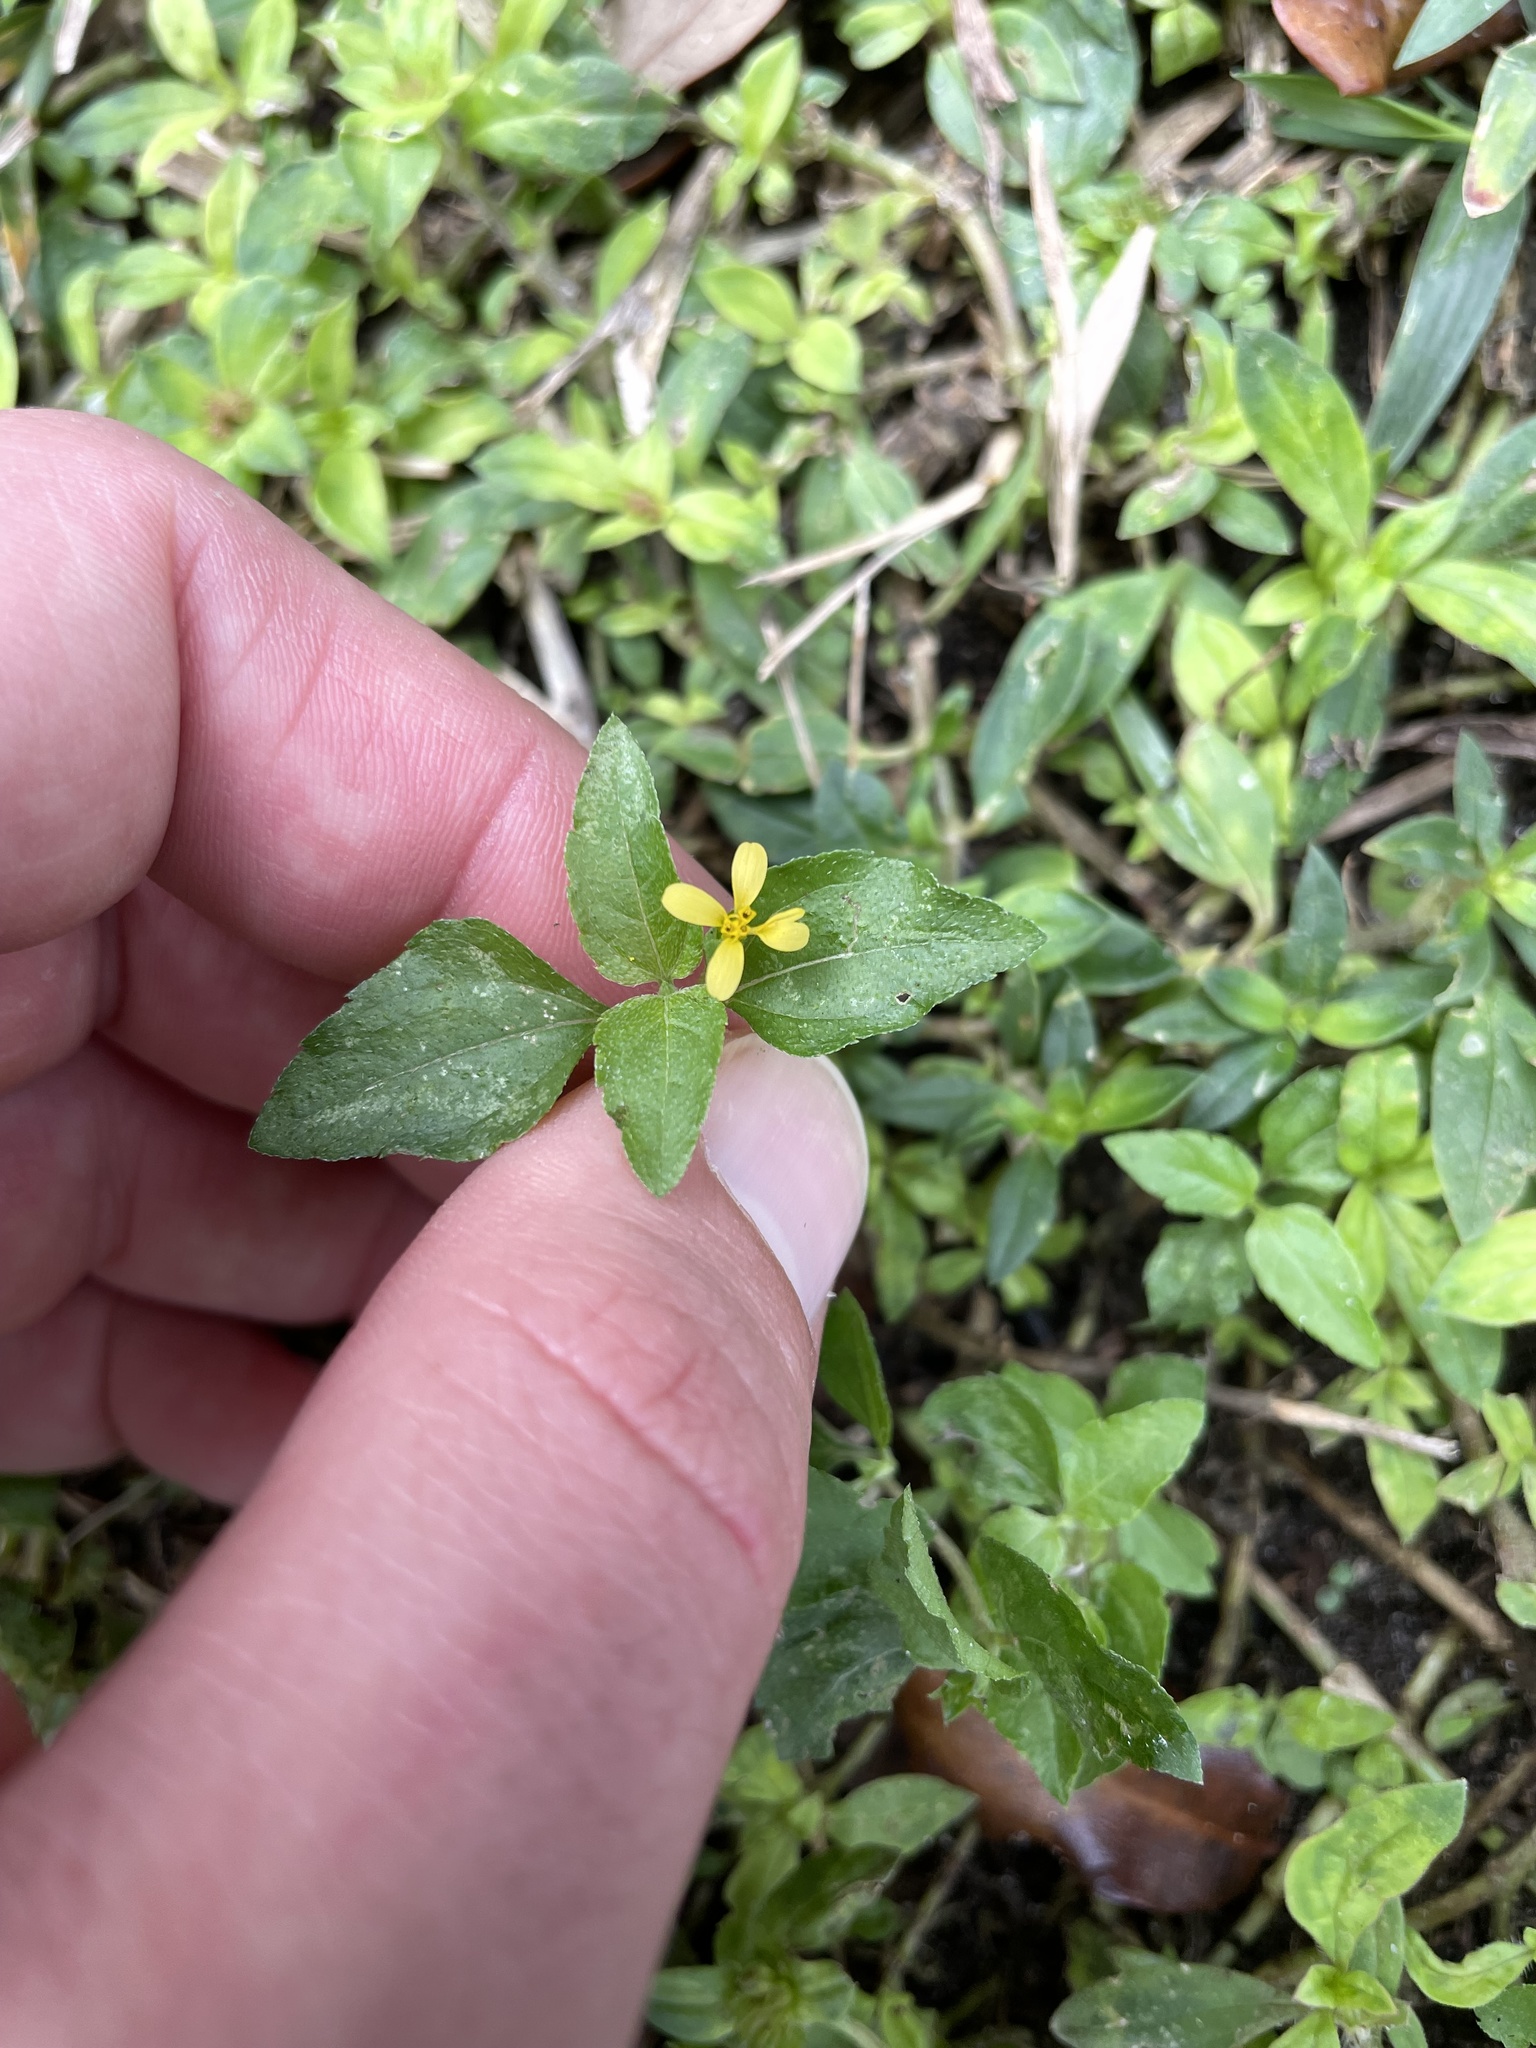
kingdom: Plantae
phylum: Tracheophyta
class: Magnoliopsida
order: Asterales
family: Asteraceae
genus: Calyptocarpus
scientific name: Calyptocarpus vialis
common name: Straggler daisy
